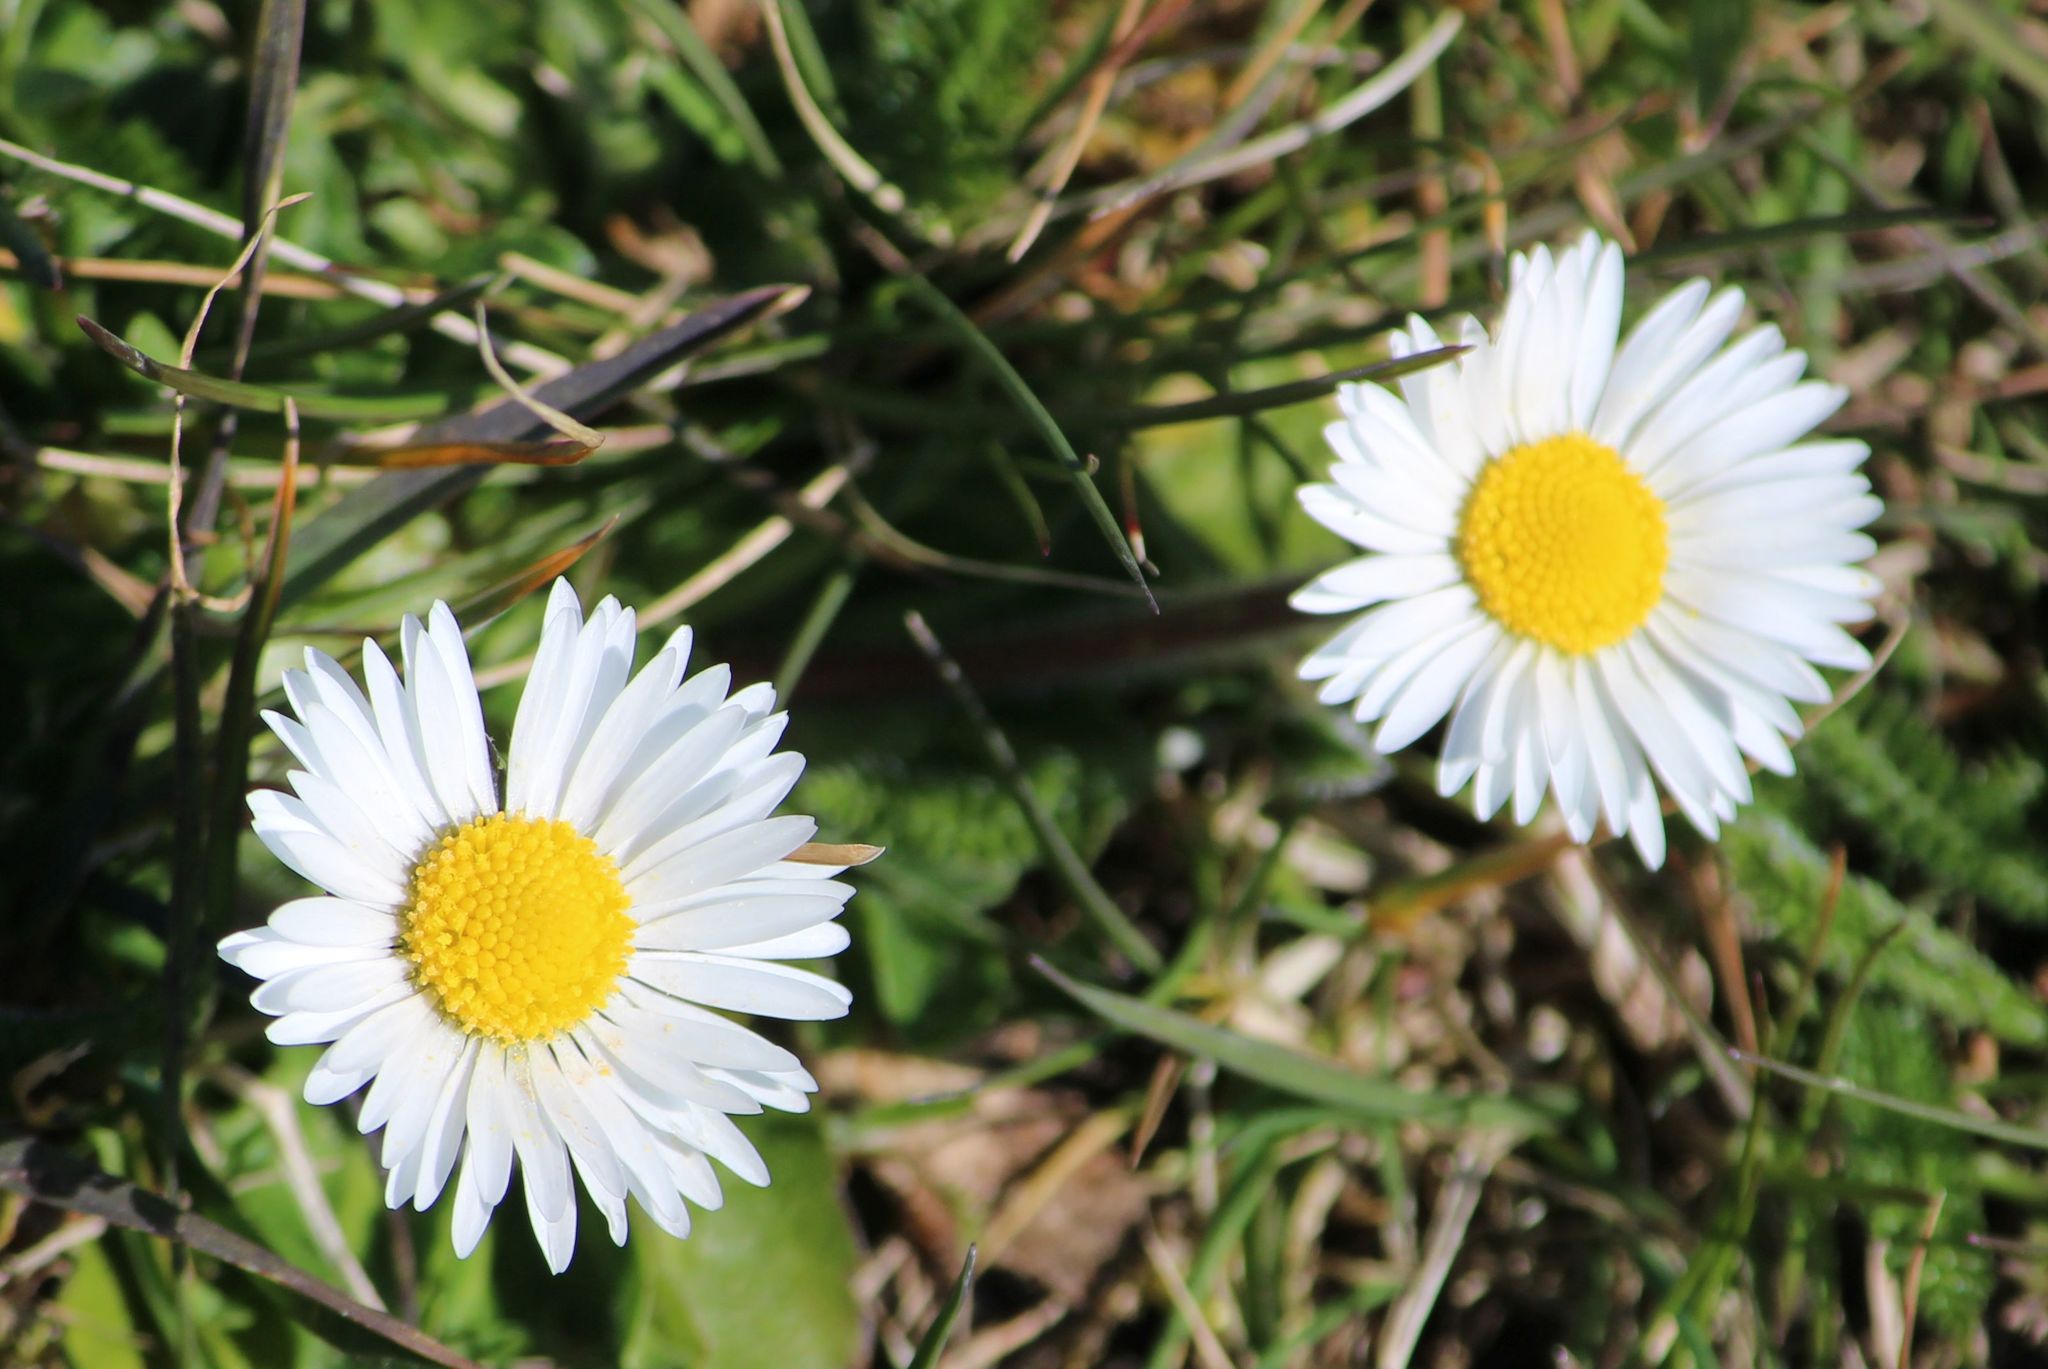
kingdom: Plantae
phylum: Tracheophyta
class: Magnoliopsida
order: Asterales
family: Asteraceae
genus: Bellis
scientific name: Bellis perennis
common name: Lawndaisy
